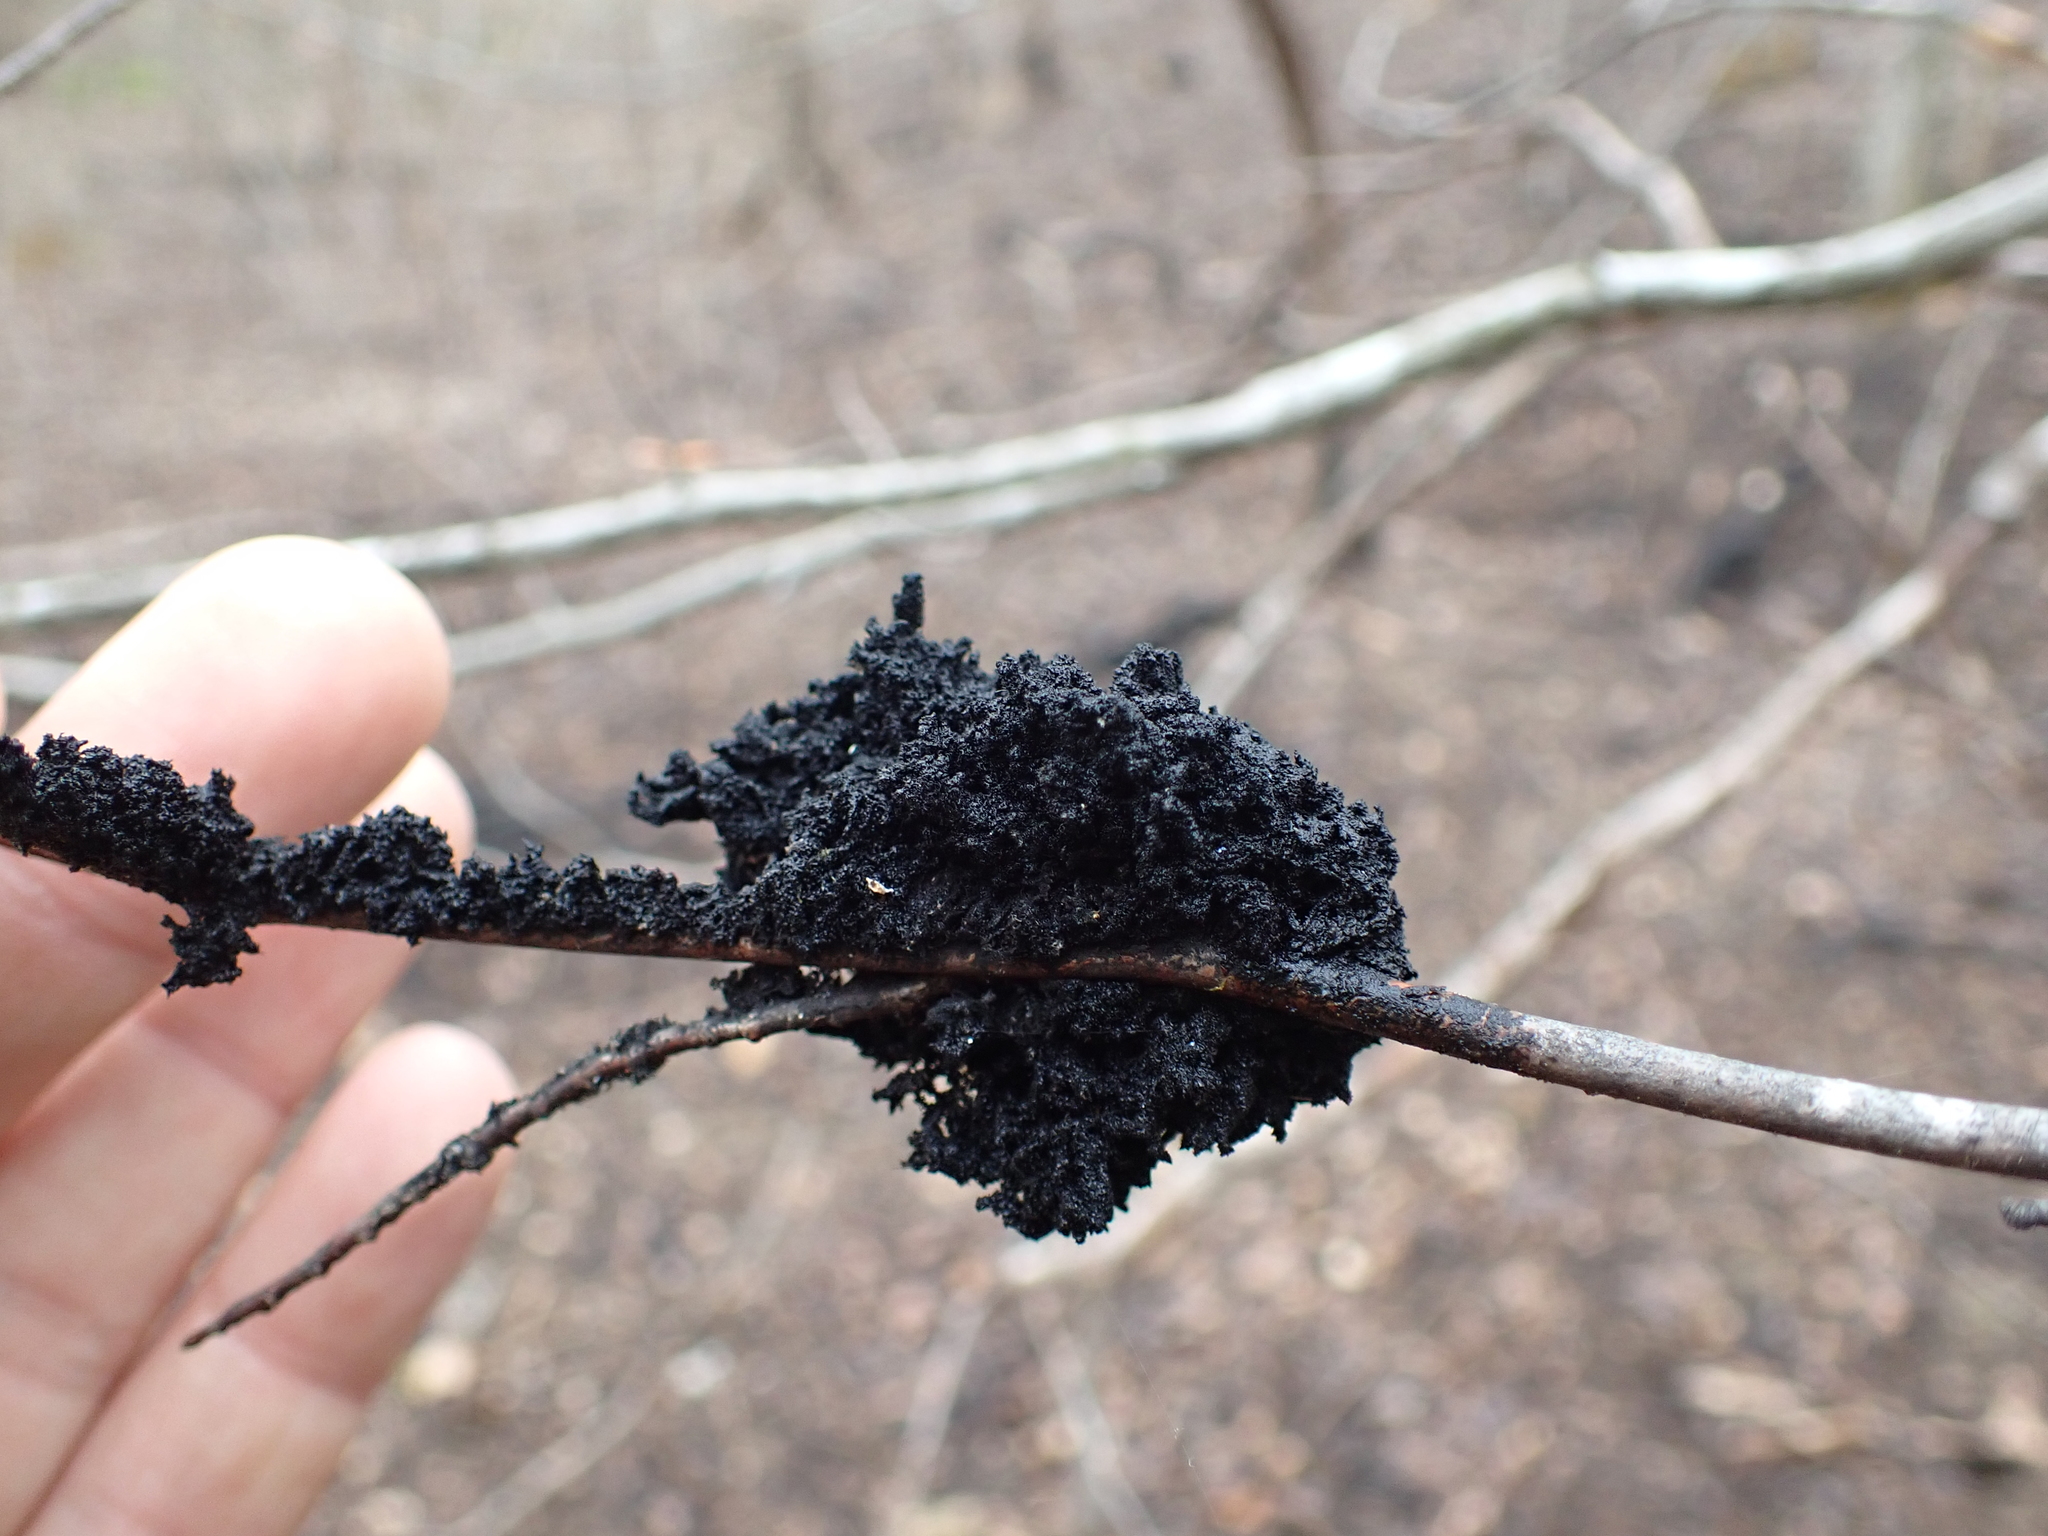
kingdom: Fungi
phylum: Ascomycota
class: Dothideomycetes
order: Capnodiales
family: Capnodiaceae
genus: Scorias
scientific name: Scorias spongiosa
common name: Black sooty mold
